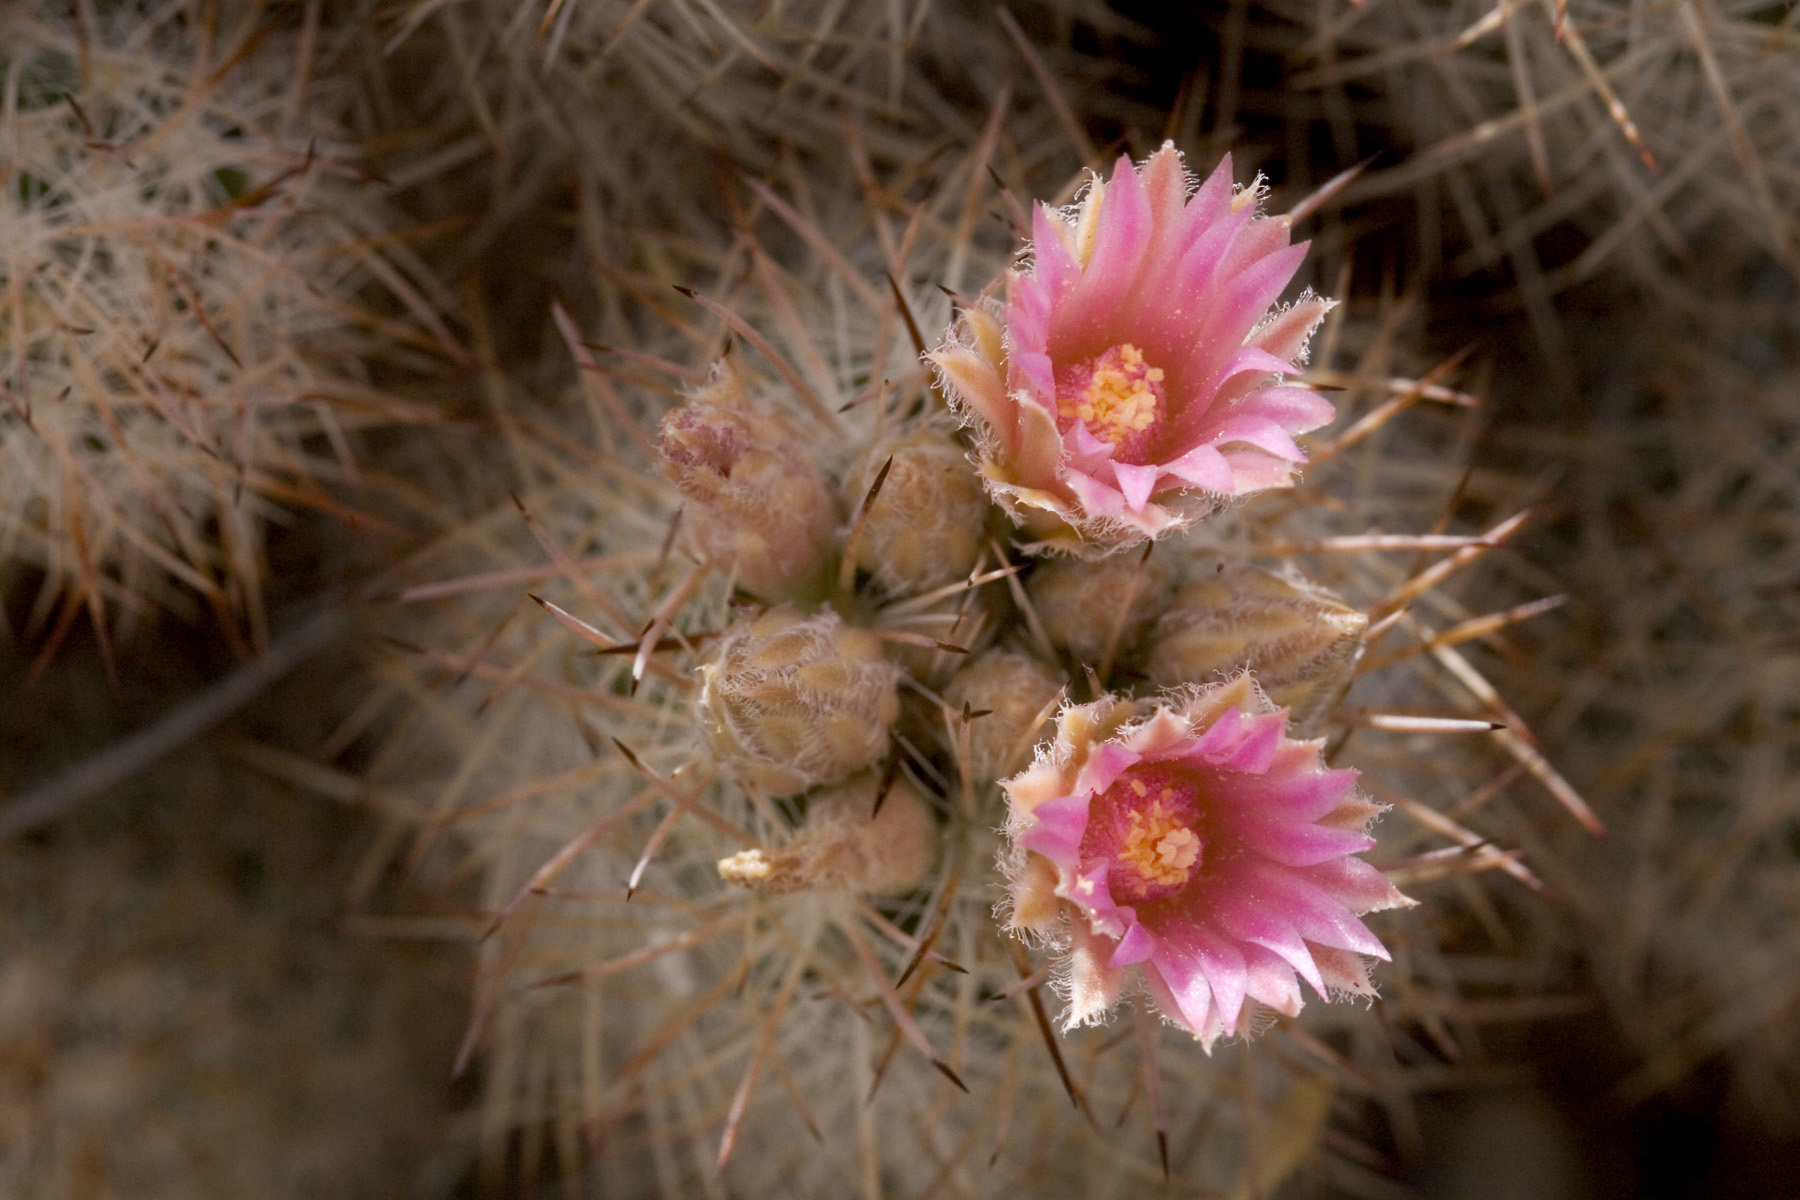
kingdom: Plantae
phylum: Tracheophyta
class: Magnoliopsida
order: Caryophyllales
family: Cactaceae
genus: Pelecyphora
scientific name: Pelecyphora sneedii
